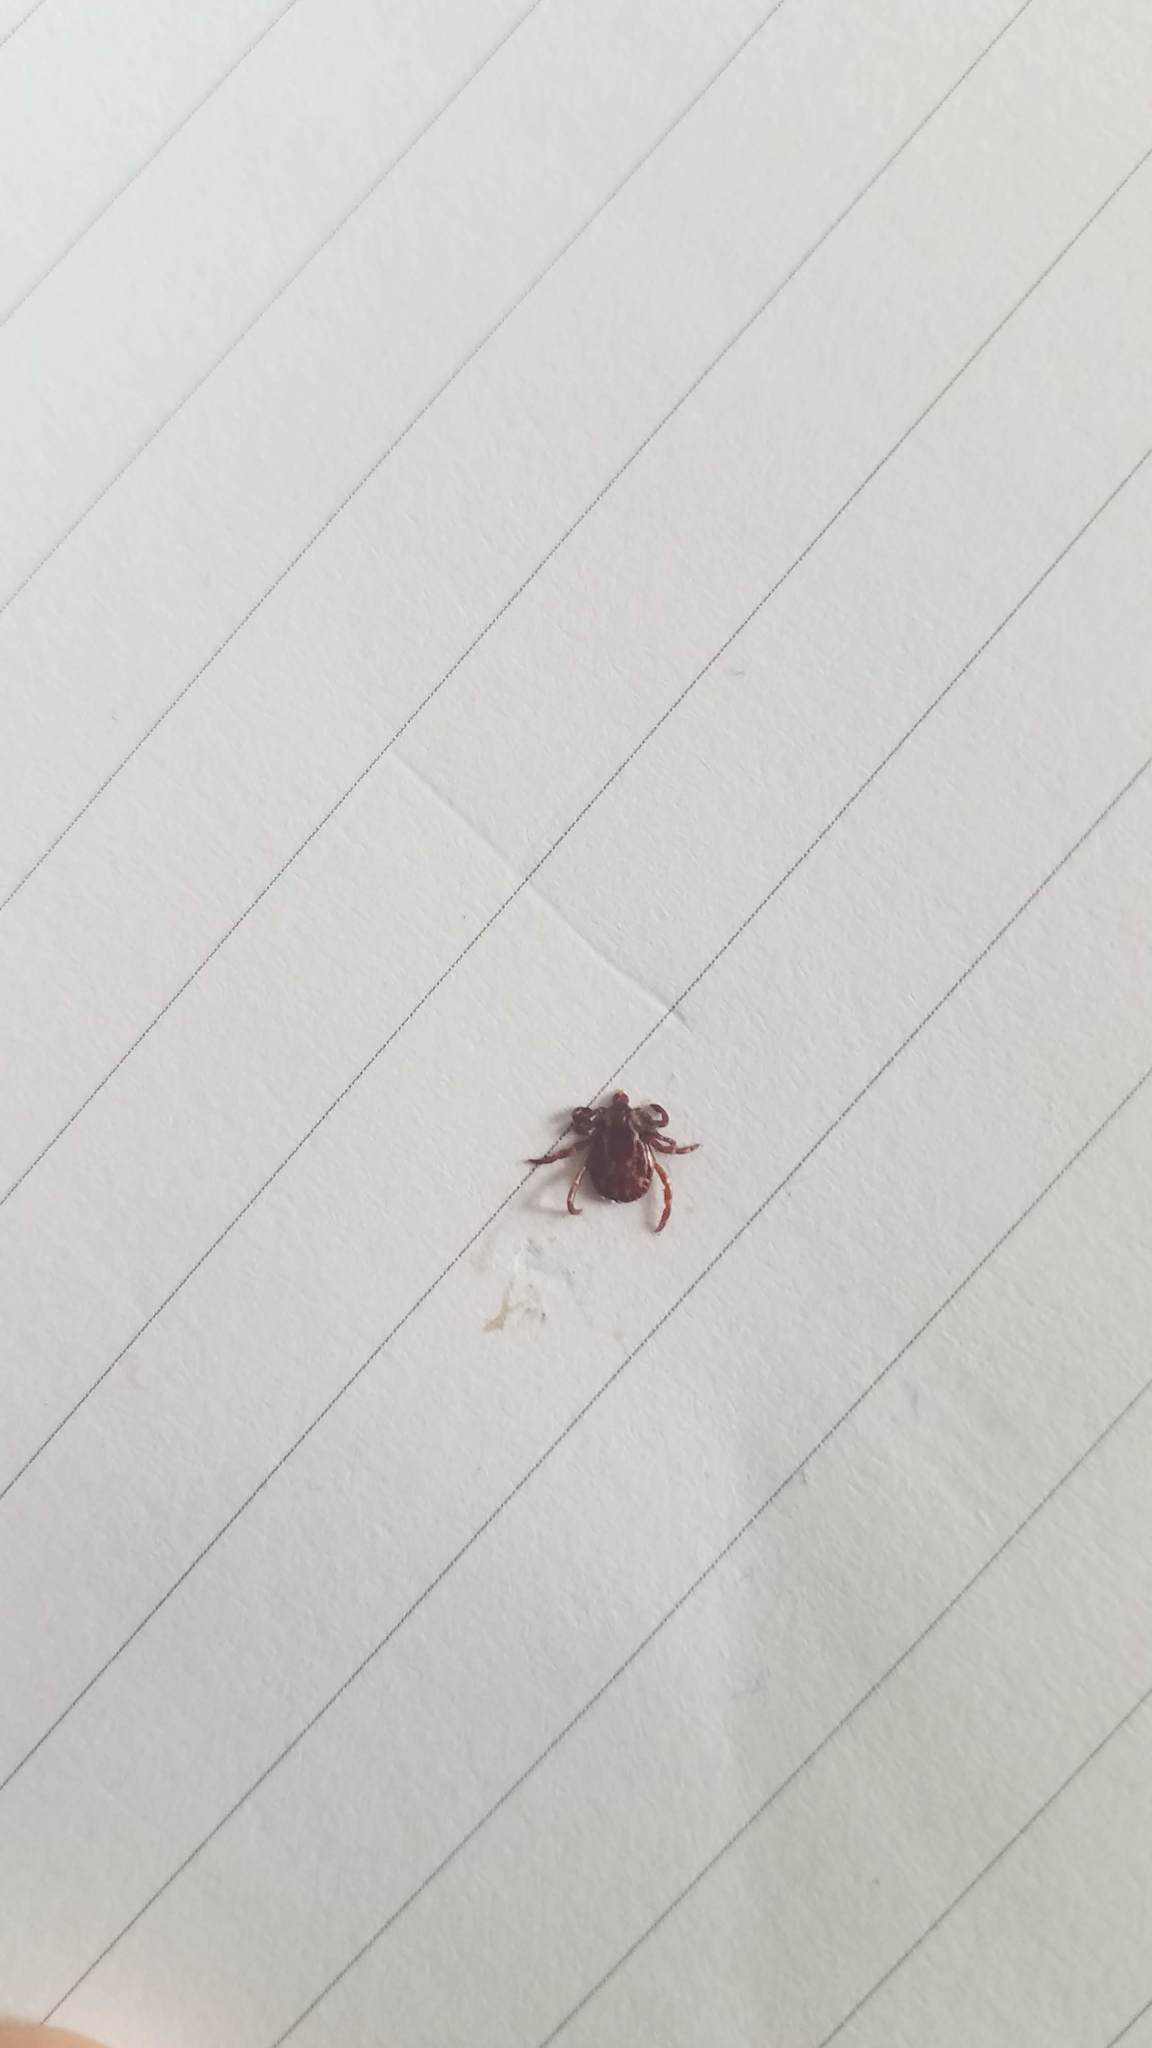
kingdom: Animalia
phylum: Arthropoda
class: Arachnida
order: Ixodida
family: Ixodidae
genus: Dermacentor
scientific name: Dermacentor variabilis
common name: American dog tick
